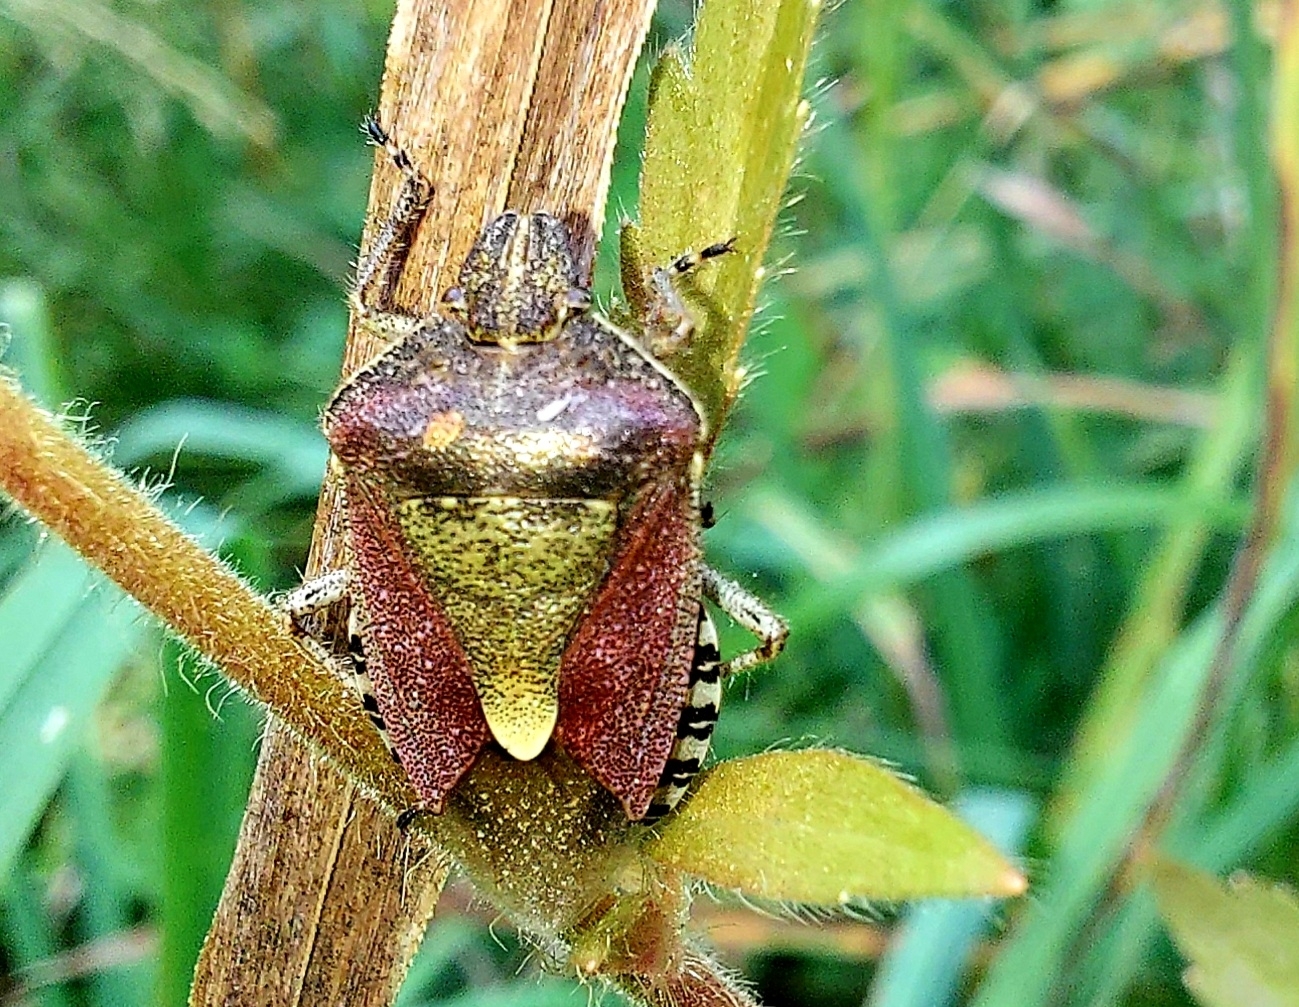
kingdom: Animalia
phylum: Arthropoda
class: Insecta
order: Hemiptera
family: Pentatomidae
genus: Dolycoris
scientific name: Dolycoris baccarum
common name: Sloe bug
